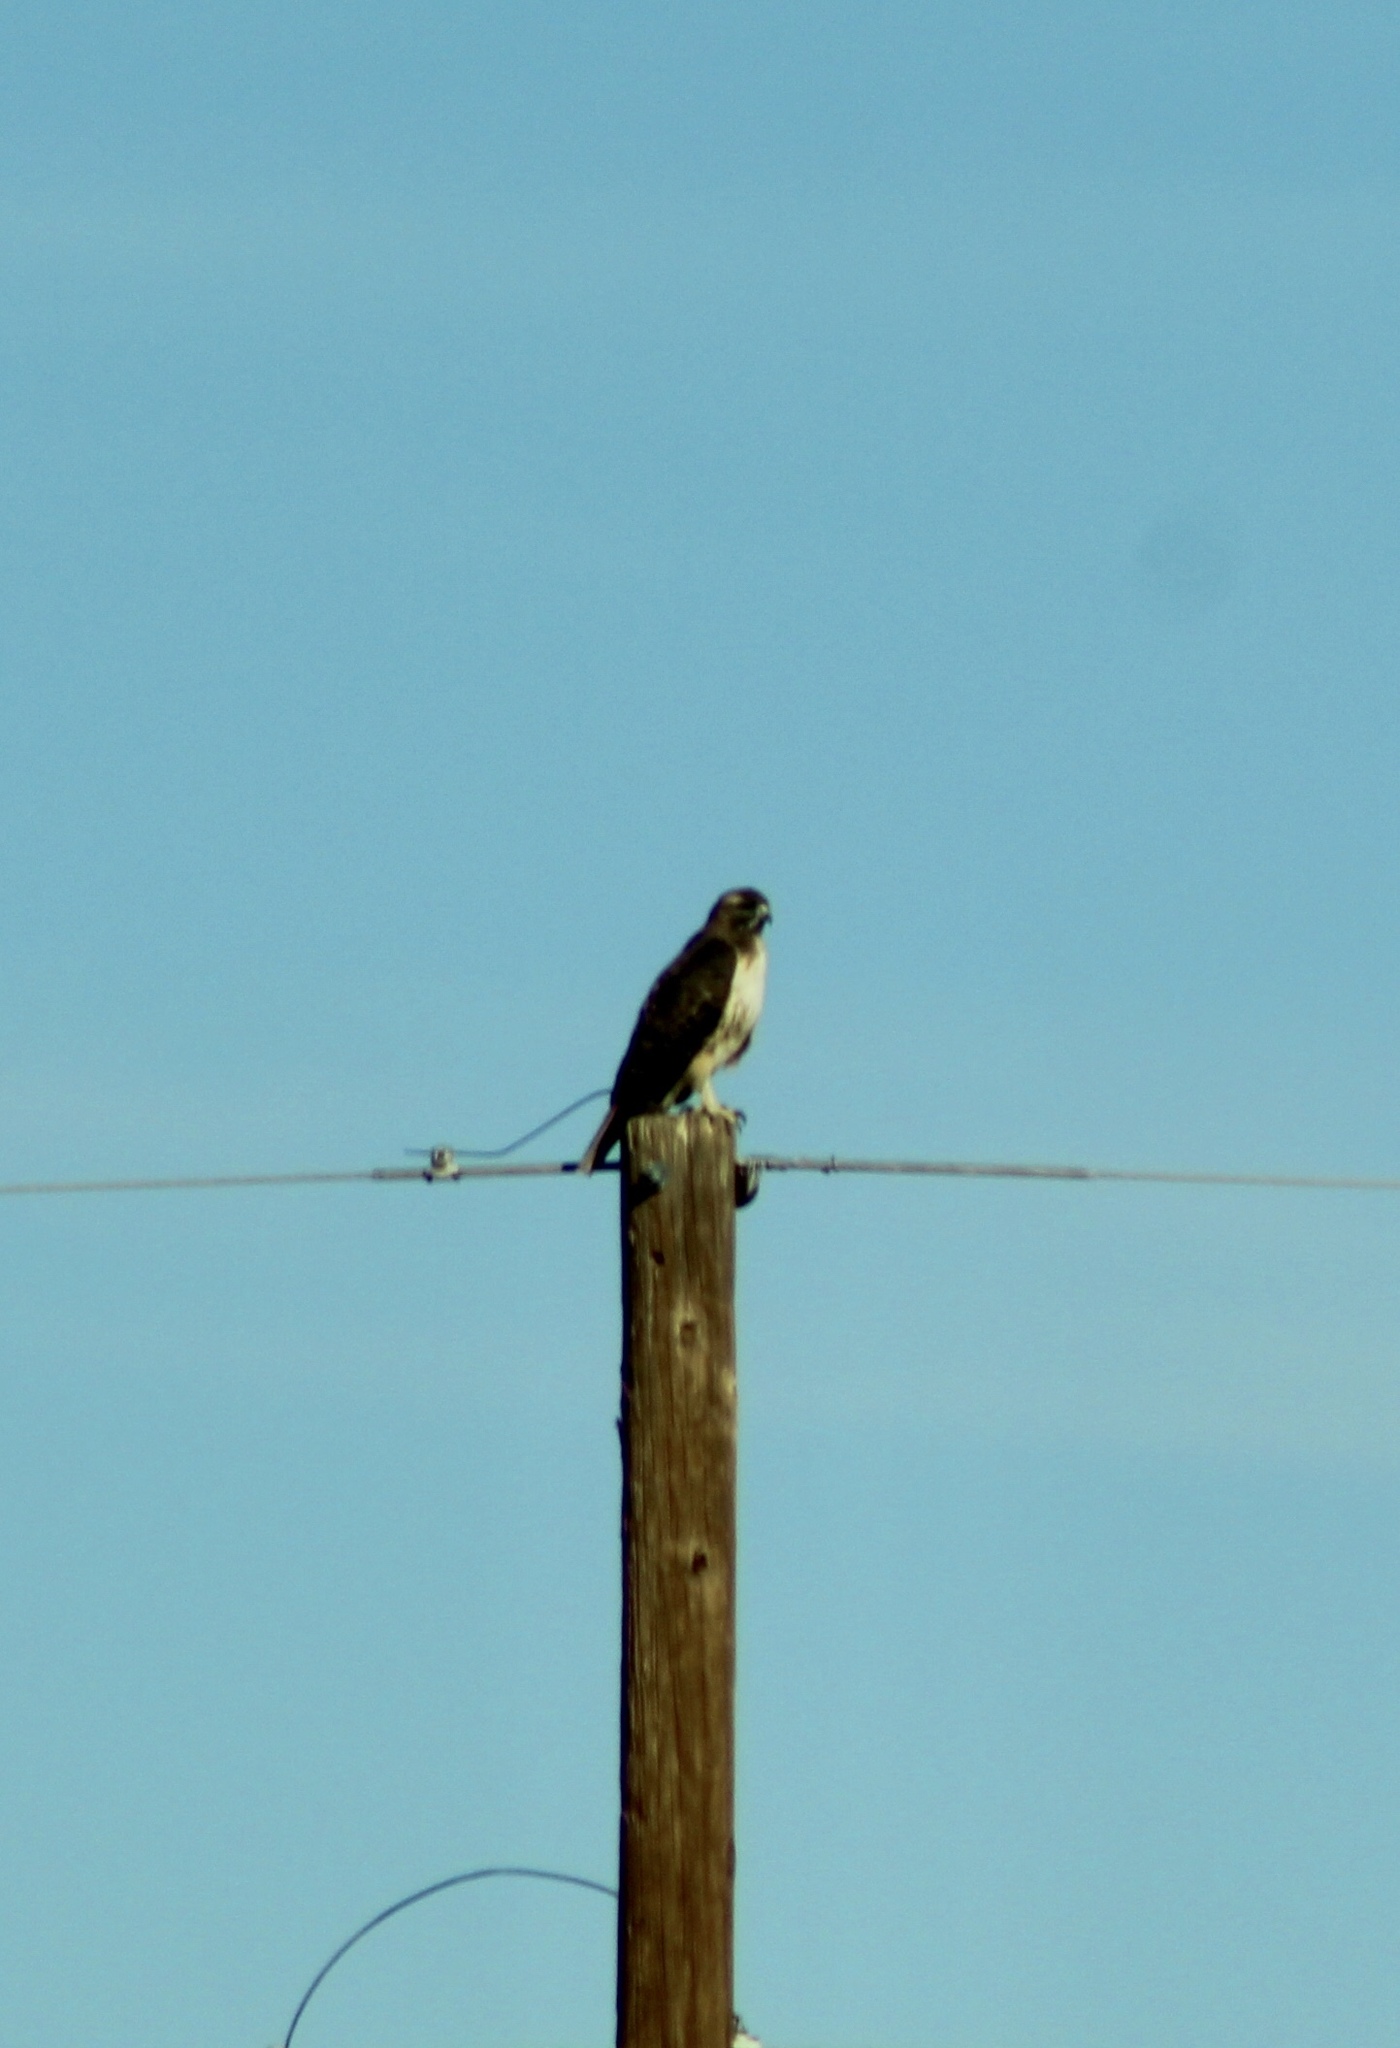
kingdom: Animalia
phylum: Chordata
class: Aves
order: Accipitriformes
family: Accipitridae
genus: Buteo
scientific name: Buteo jamaicensis
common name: Red-tailed hawk
